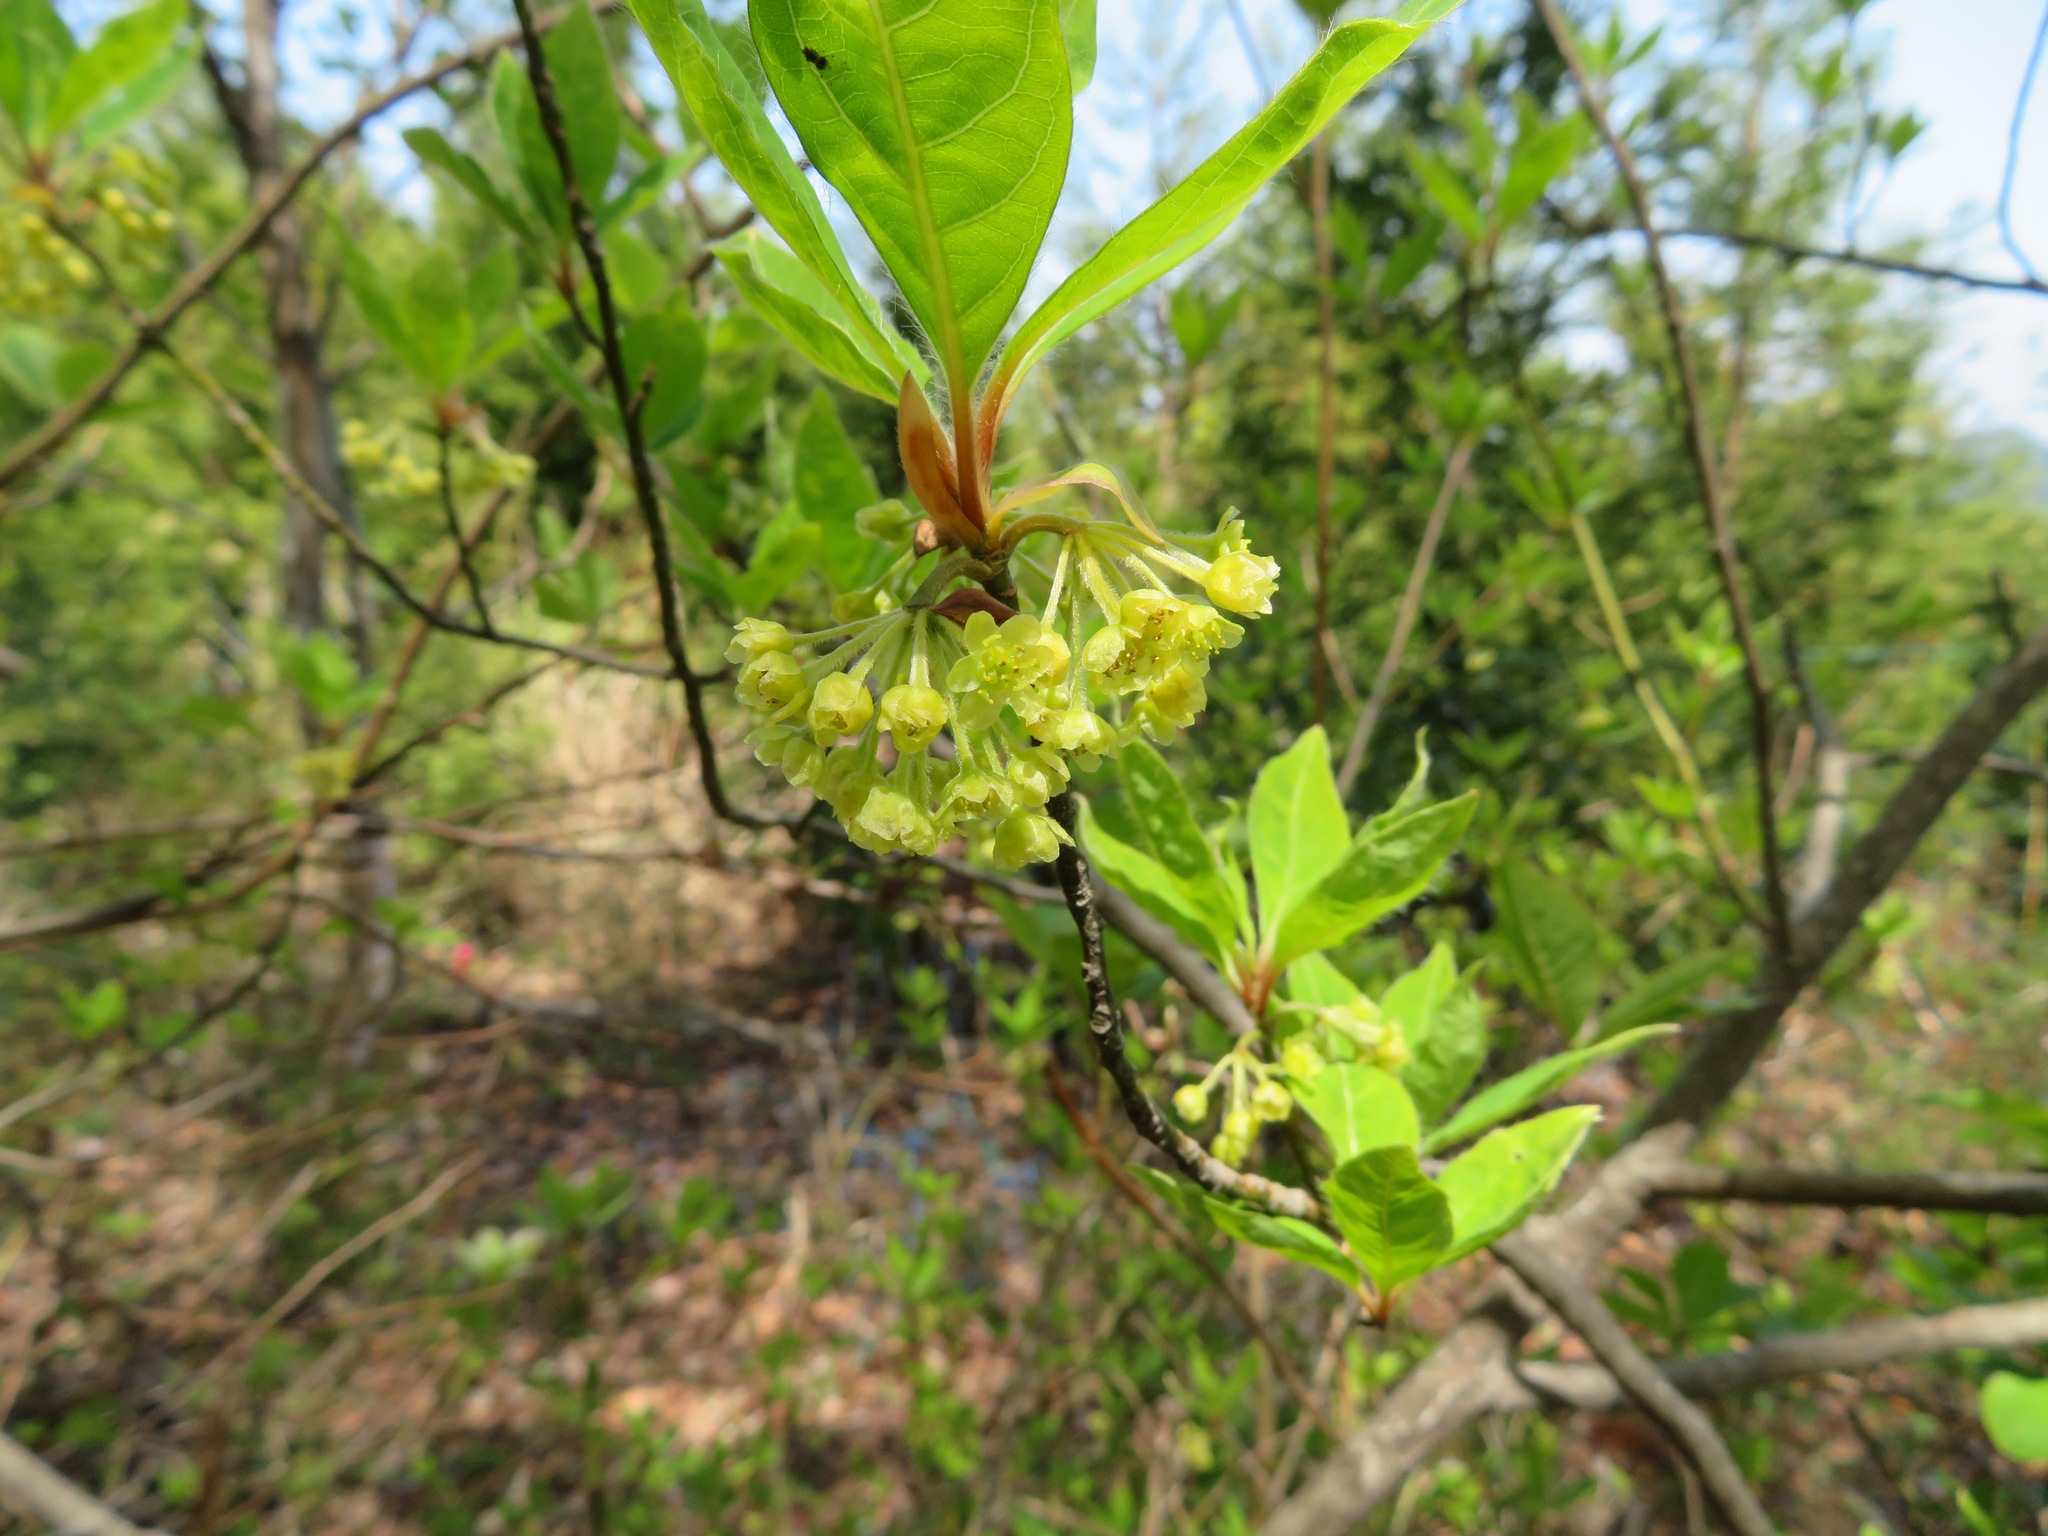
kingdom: Plantae
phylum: Tracheophyta
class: Magnoliopsida
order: Laurales
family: Lauraceae
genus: Lindera
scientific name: Lindera umbellata
